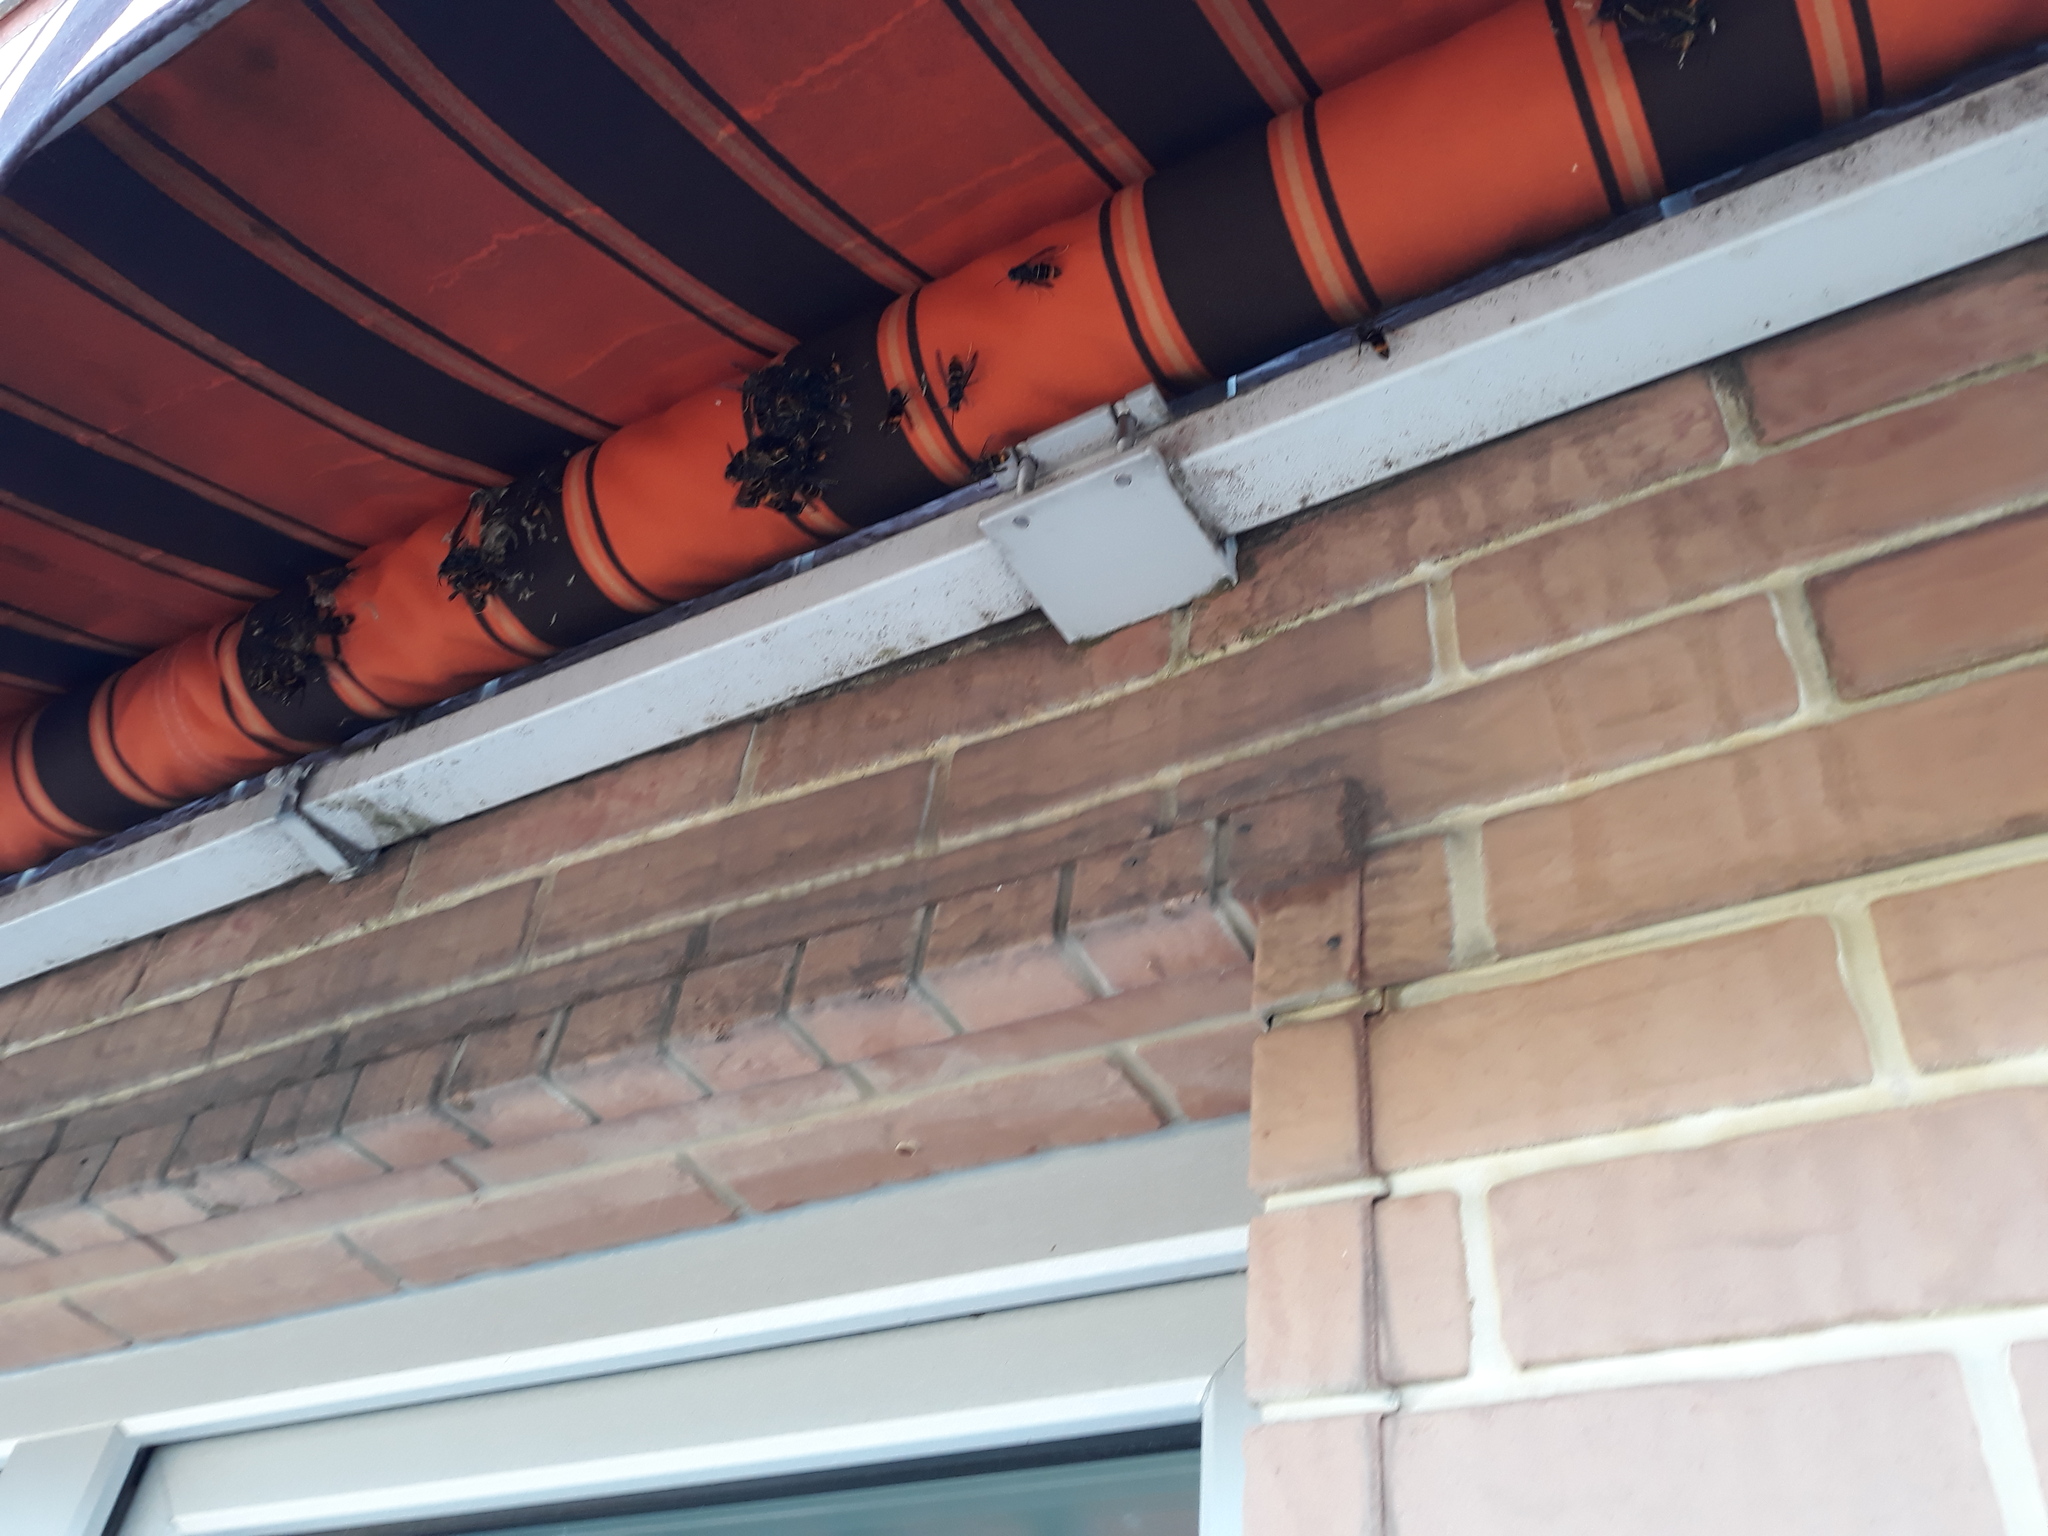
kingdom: Animalia
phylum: Arthropoda
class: Insecta
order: Hymenoptera
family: Vespidae
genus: Vespa
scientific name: Vespa velutina
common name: Asian hornet
